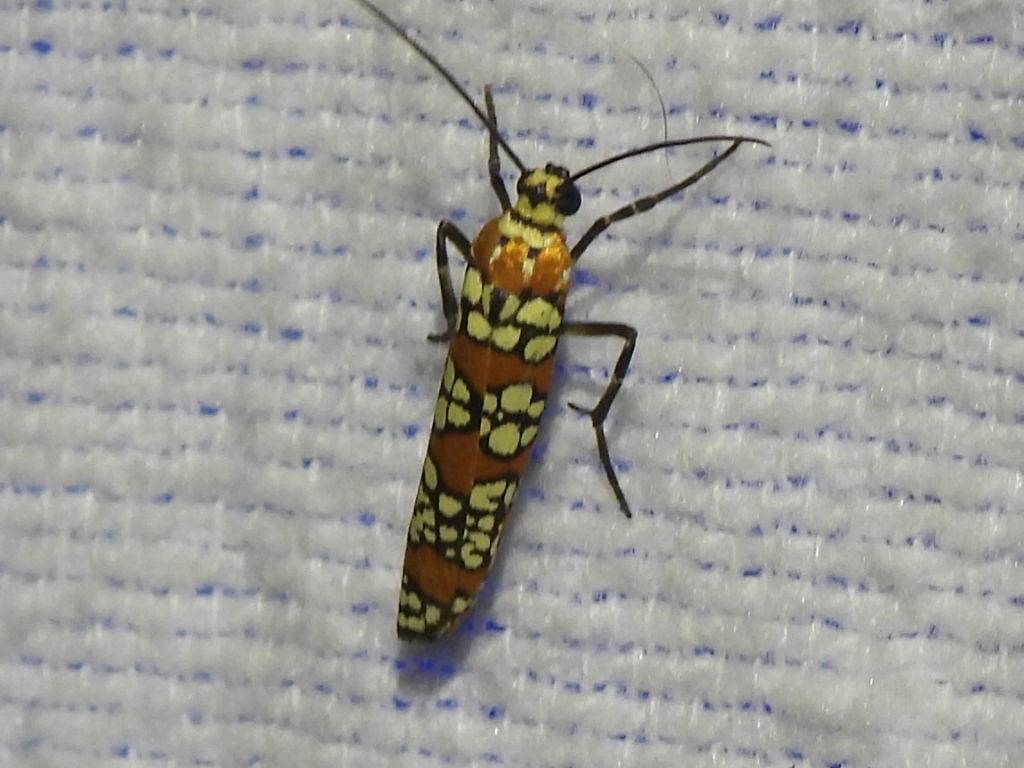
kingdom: Animalia
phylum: Arthropoda
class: Insecta
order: Lepidoptera
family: Attevidae
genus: Atteva
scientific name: Atteva punctella
